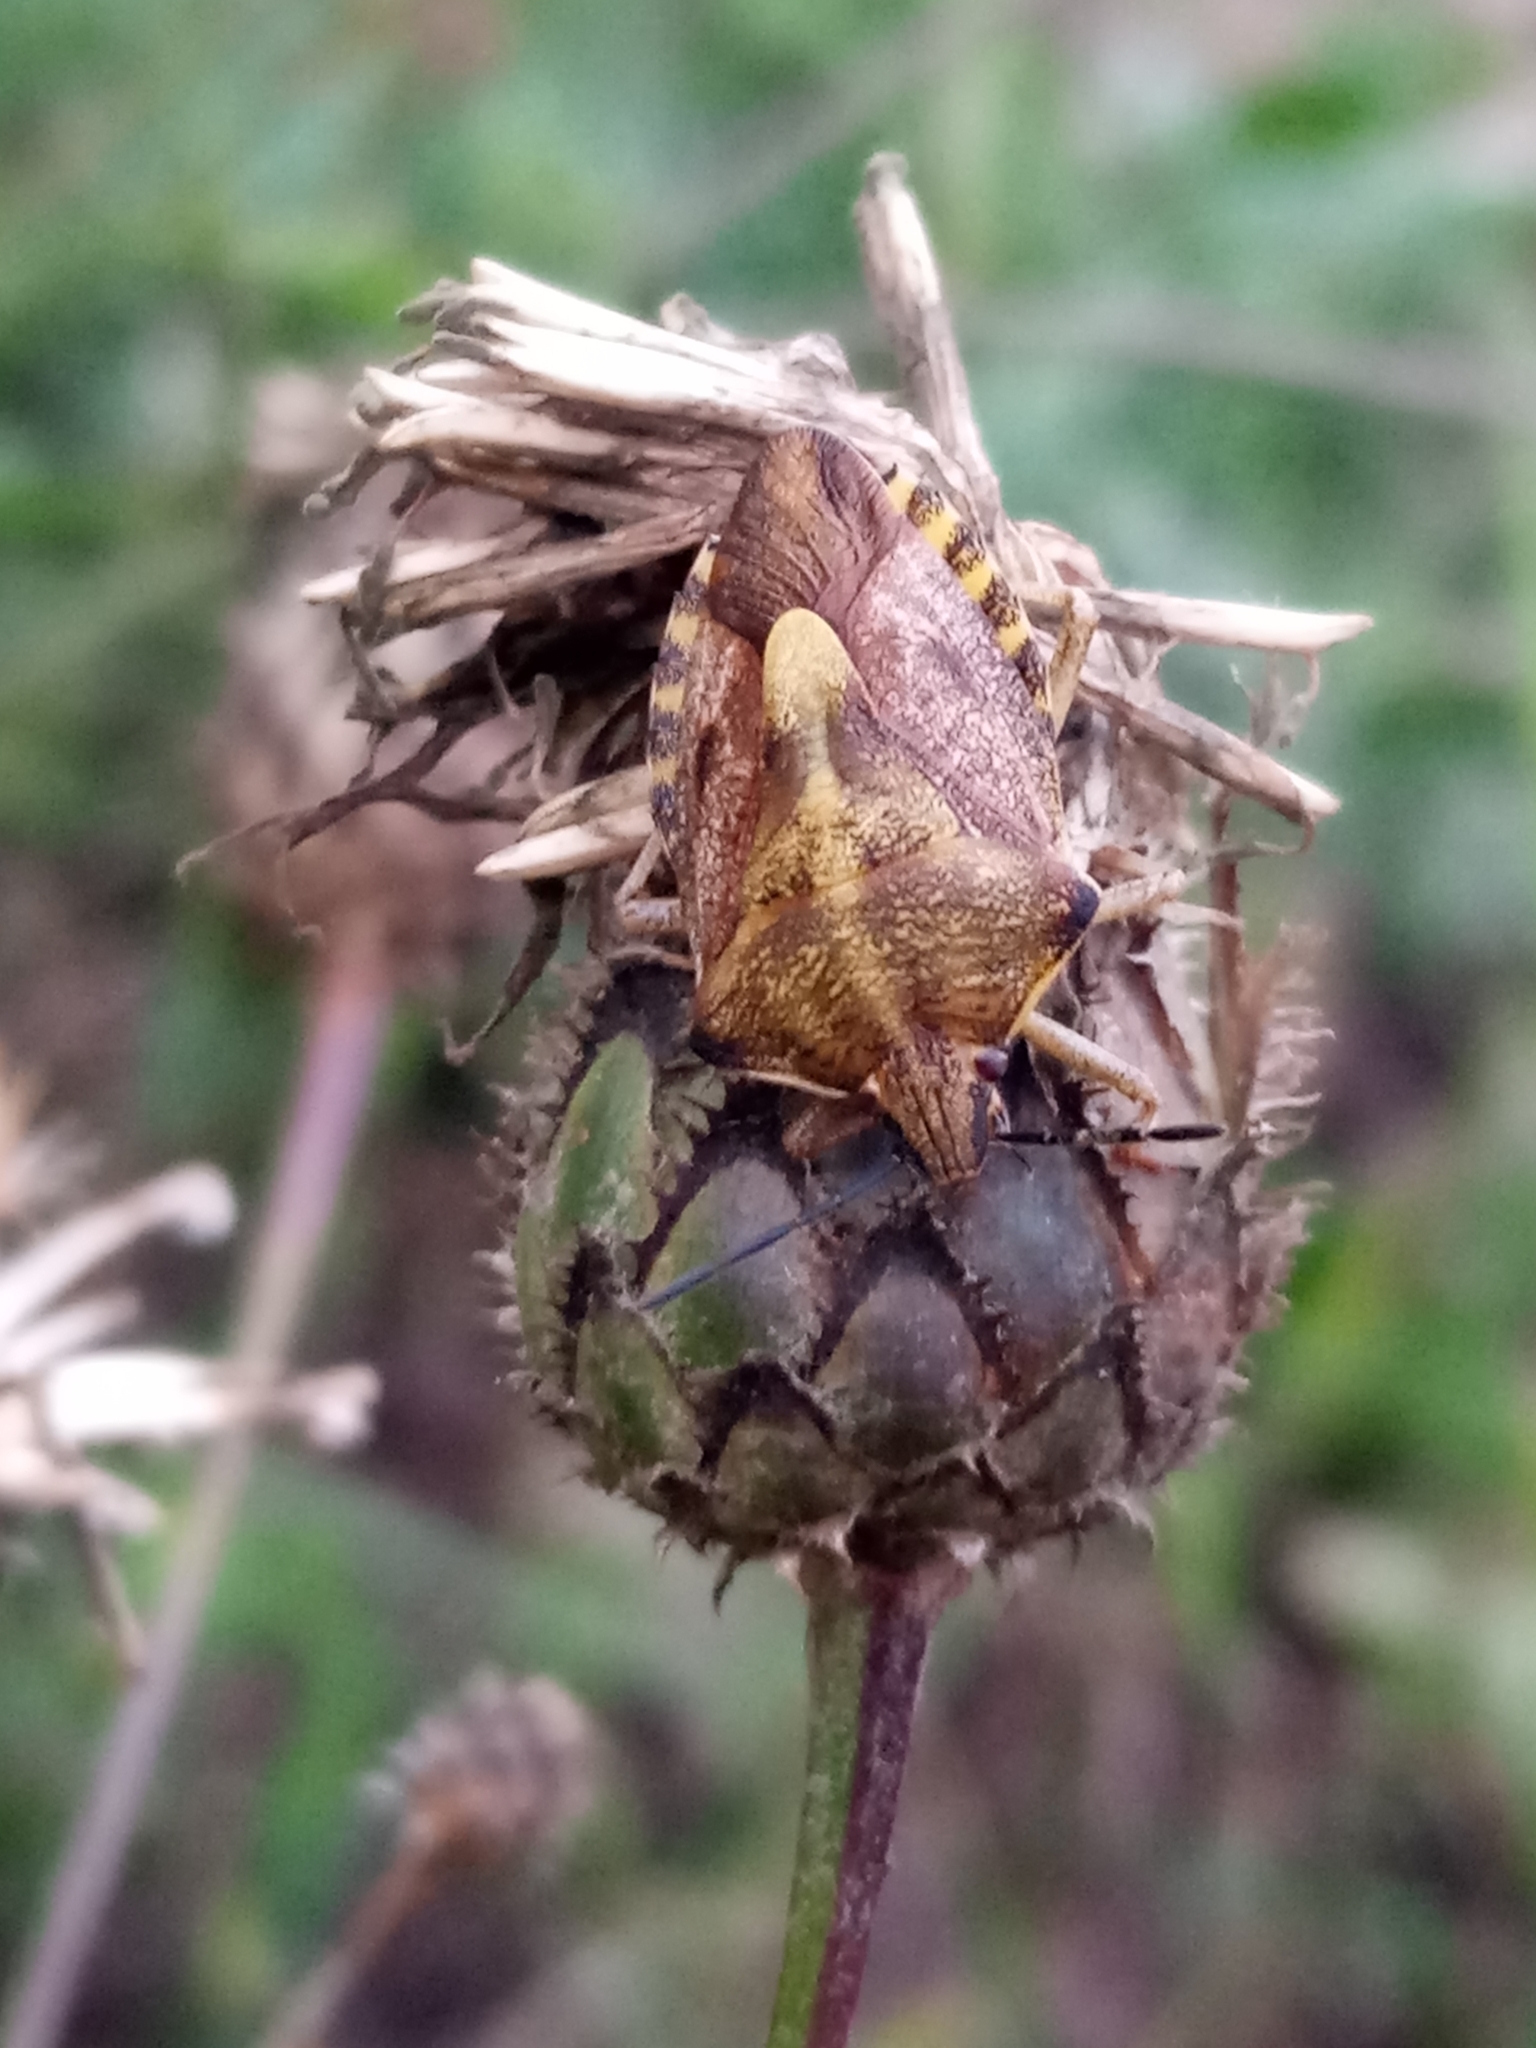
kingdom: Animalia
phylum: Arthropoda
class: Insecta
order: Hemiptera
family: Pentatomidae
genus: Carpocoris
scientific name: Carpocoris purpureipennis
